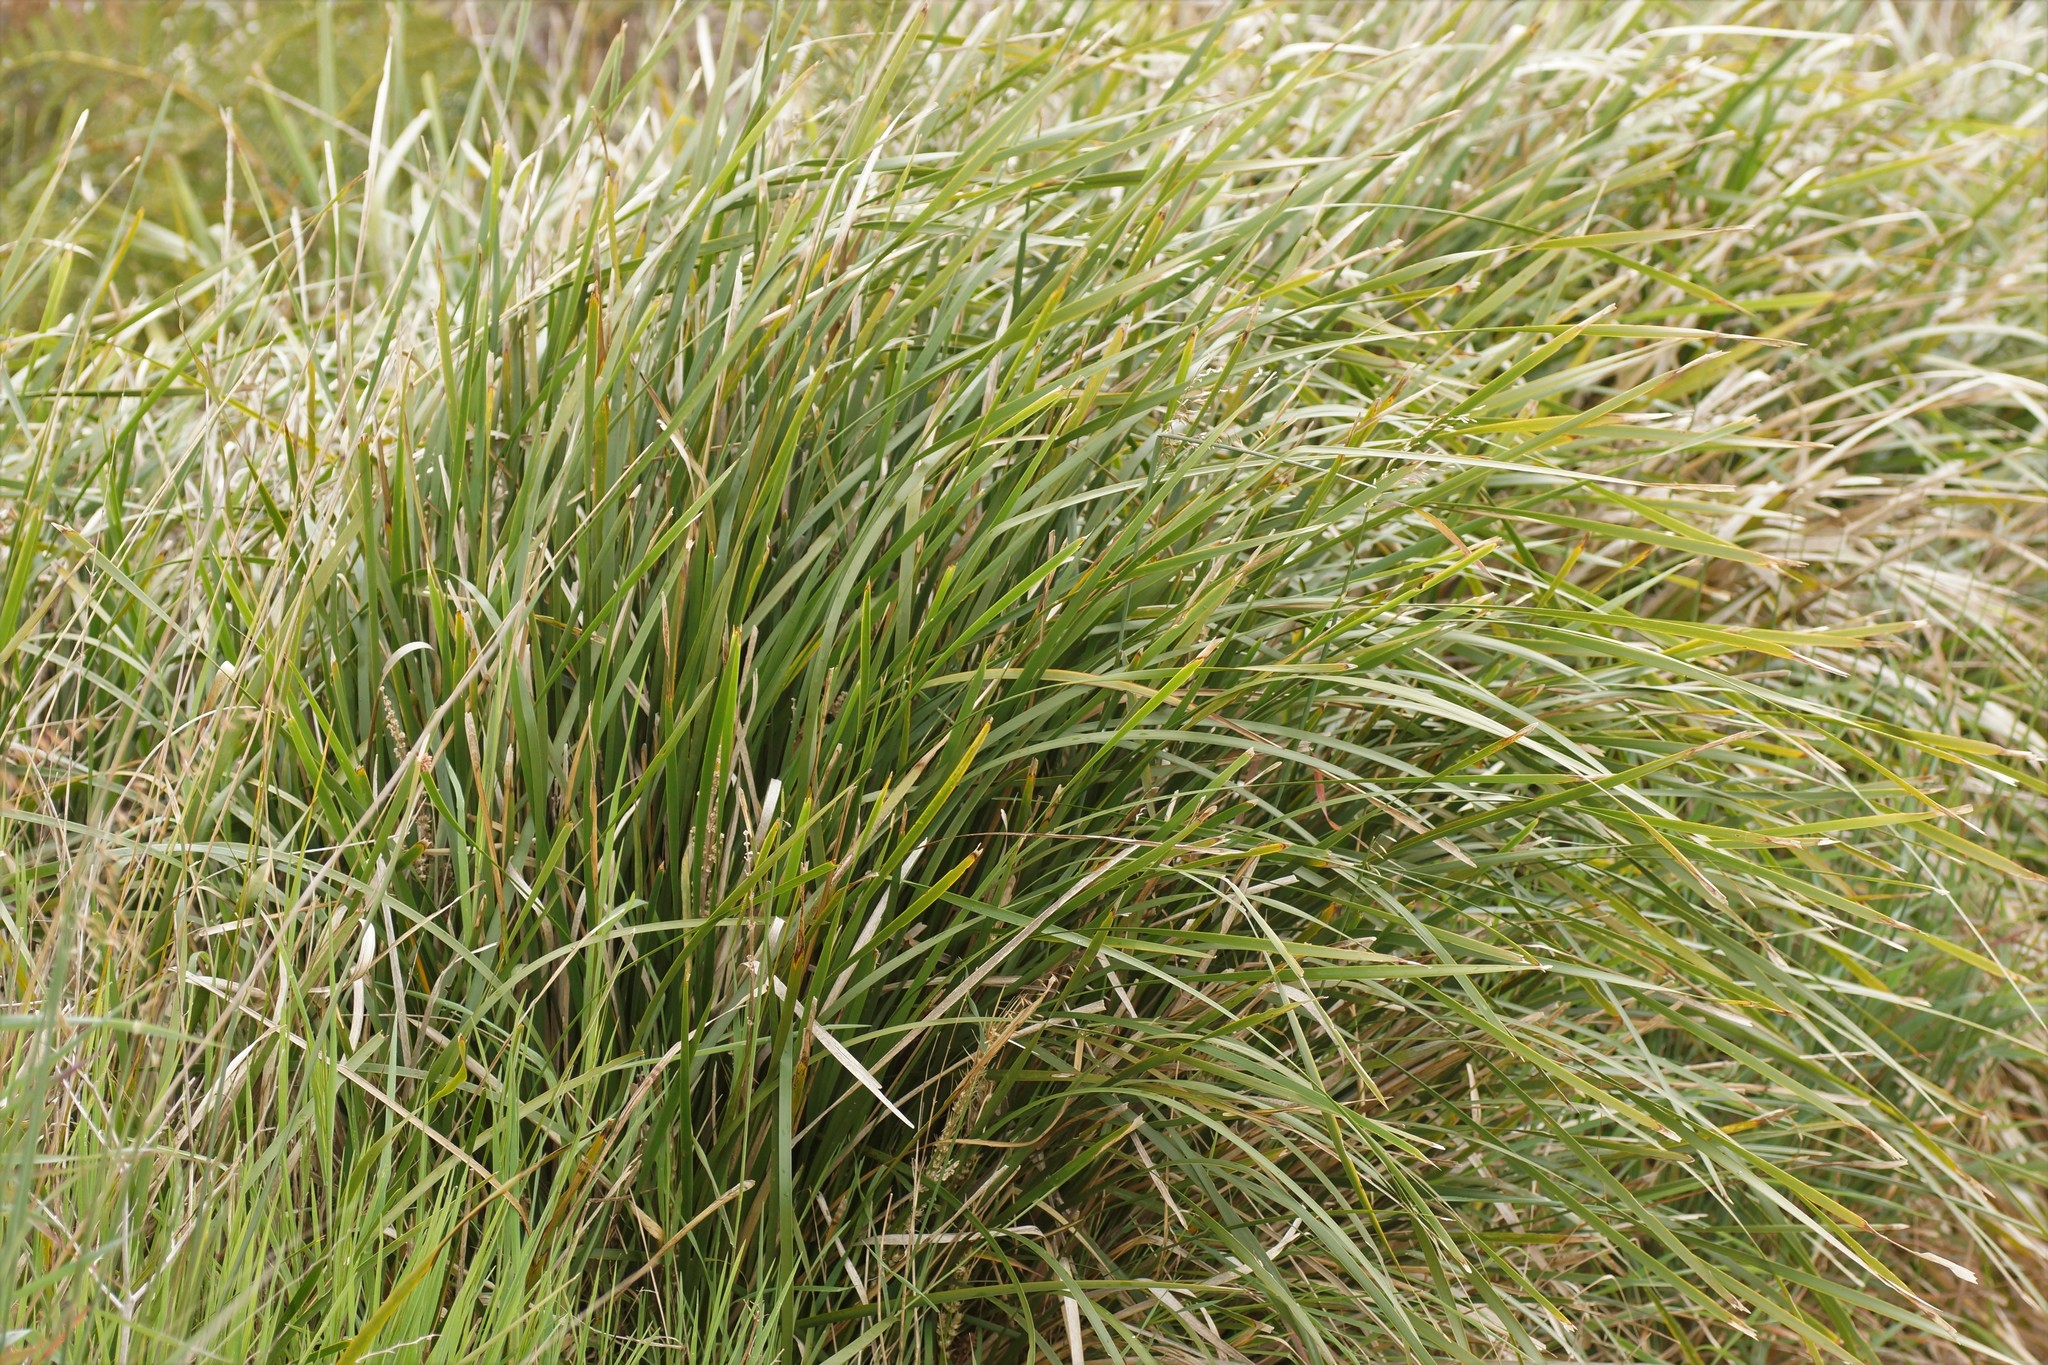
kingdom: Plantae
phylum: Tracheophyta
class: Liliopsida
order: Asparagales
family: Asparagaceae
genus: Lomandra
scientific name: Lomandra longifolia
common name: Longleaf mat-rush
